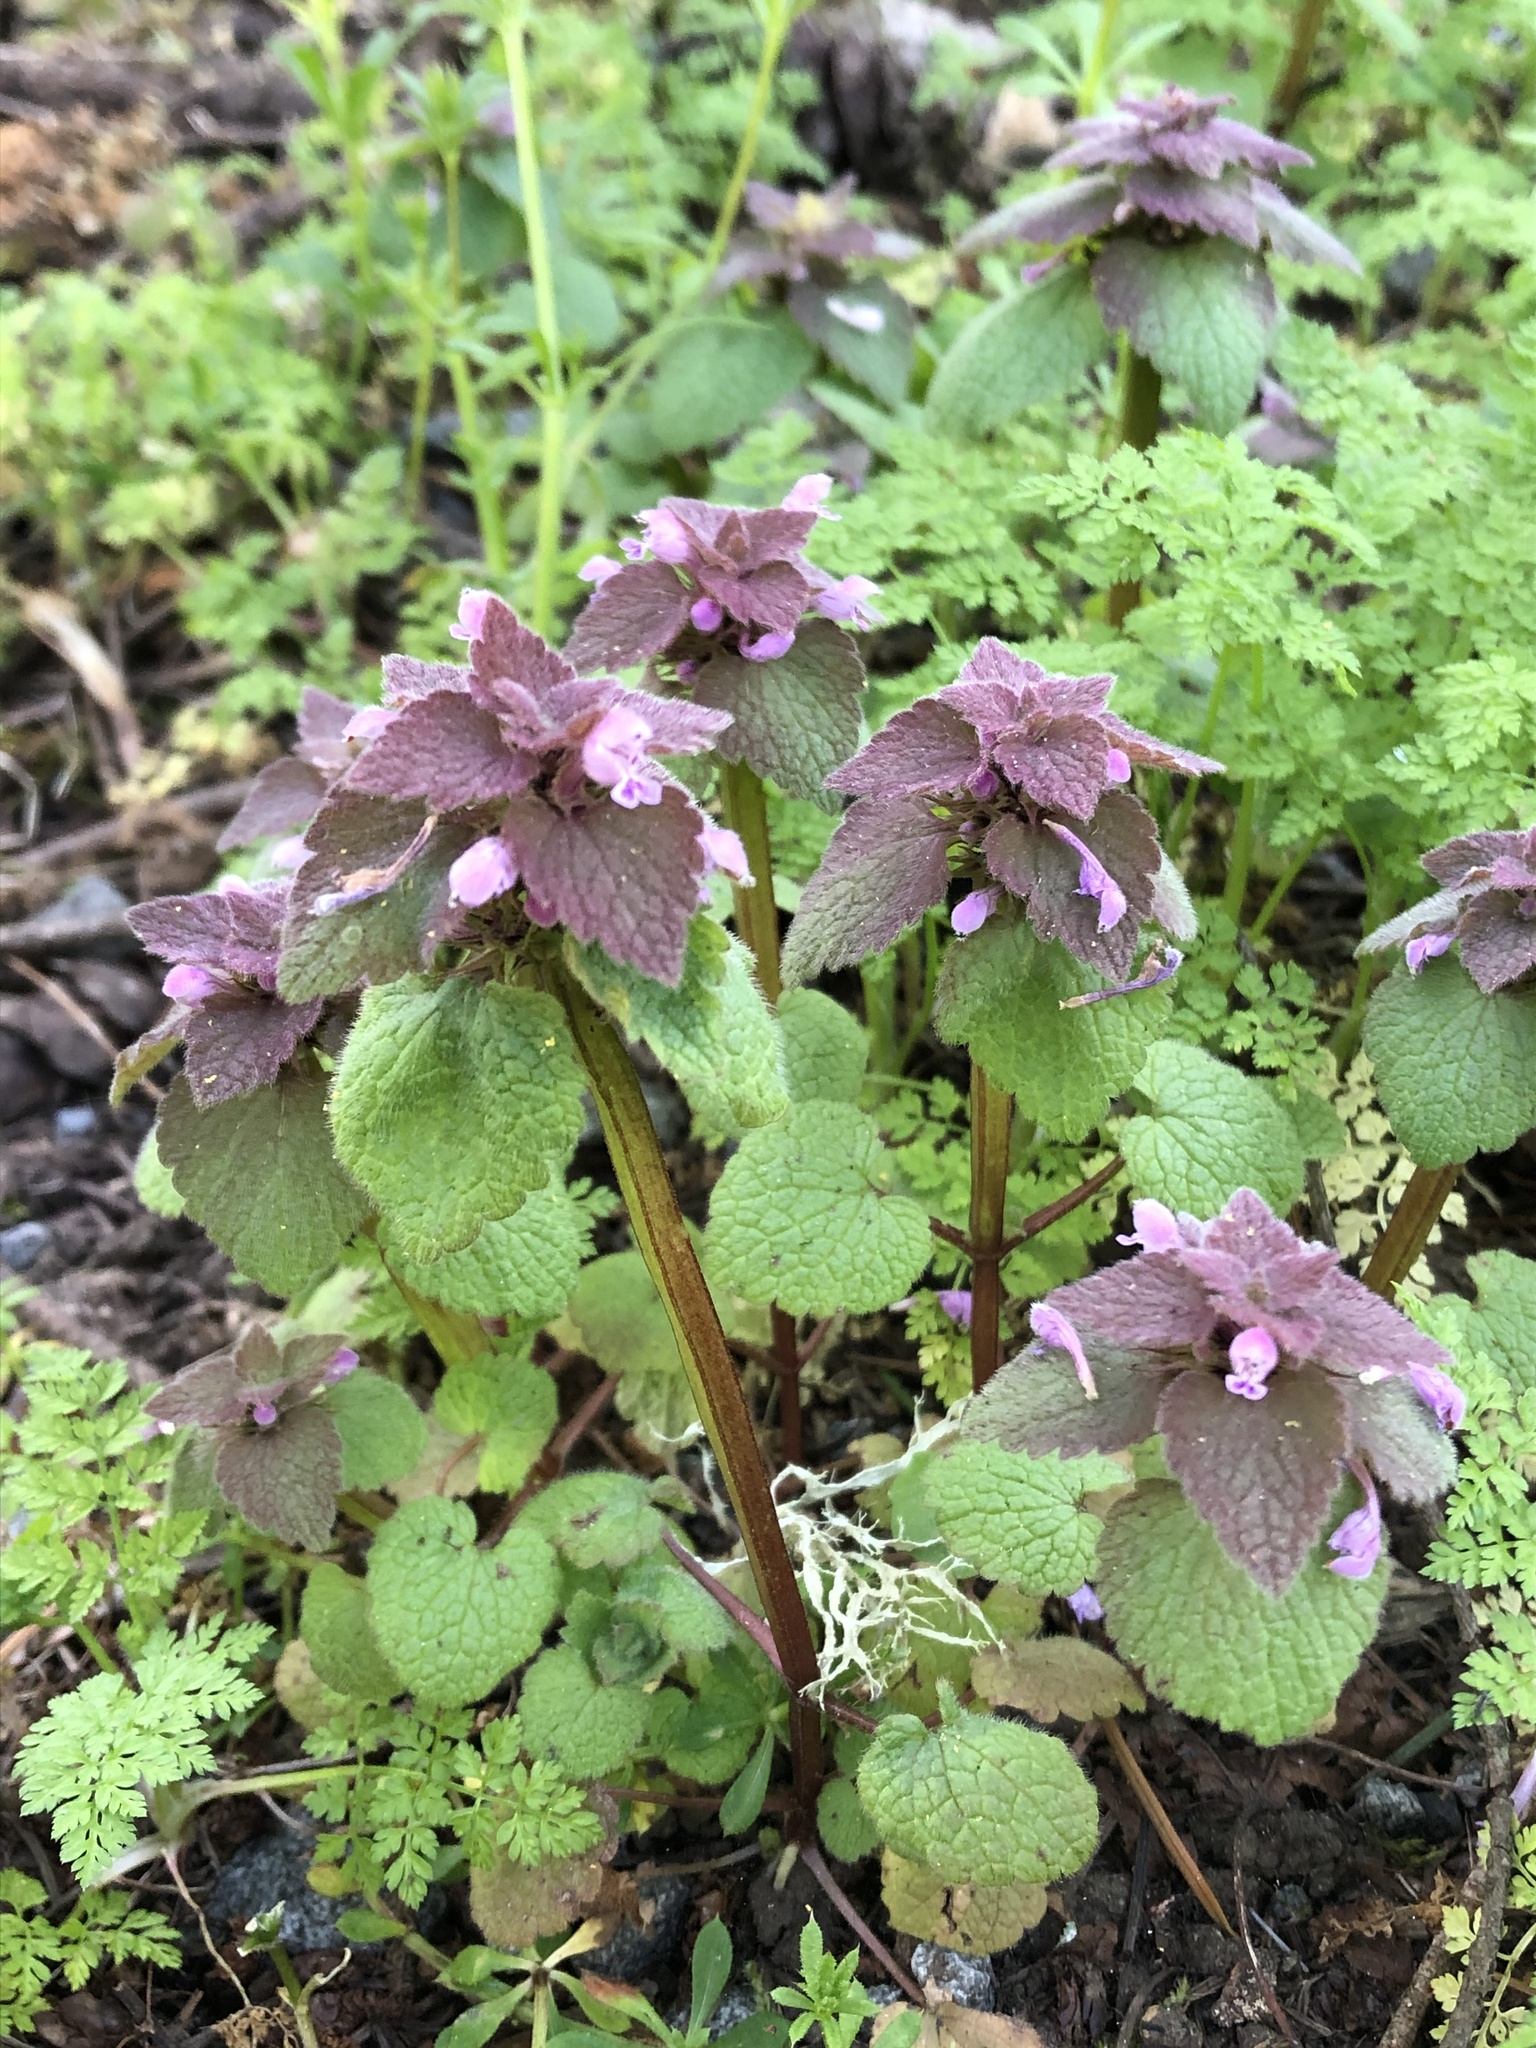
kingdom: Plantae
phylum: Tracheophyta
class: Magnoliopsida
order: Lamiales
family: Lamiaceae
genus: Lamium
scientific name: Lamium purpureum
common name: Red dead-nettle
